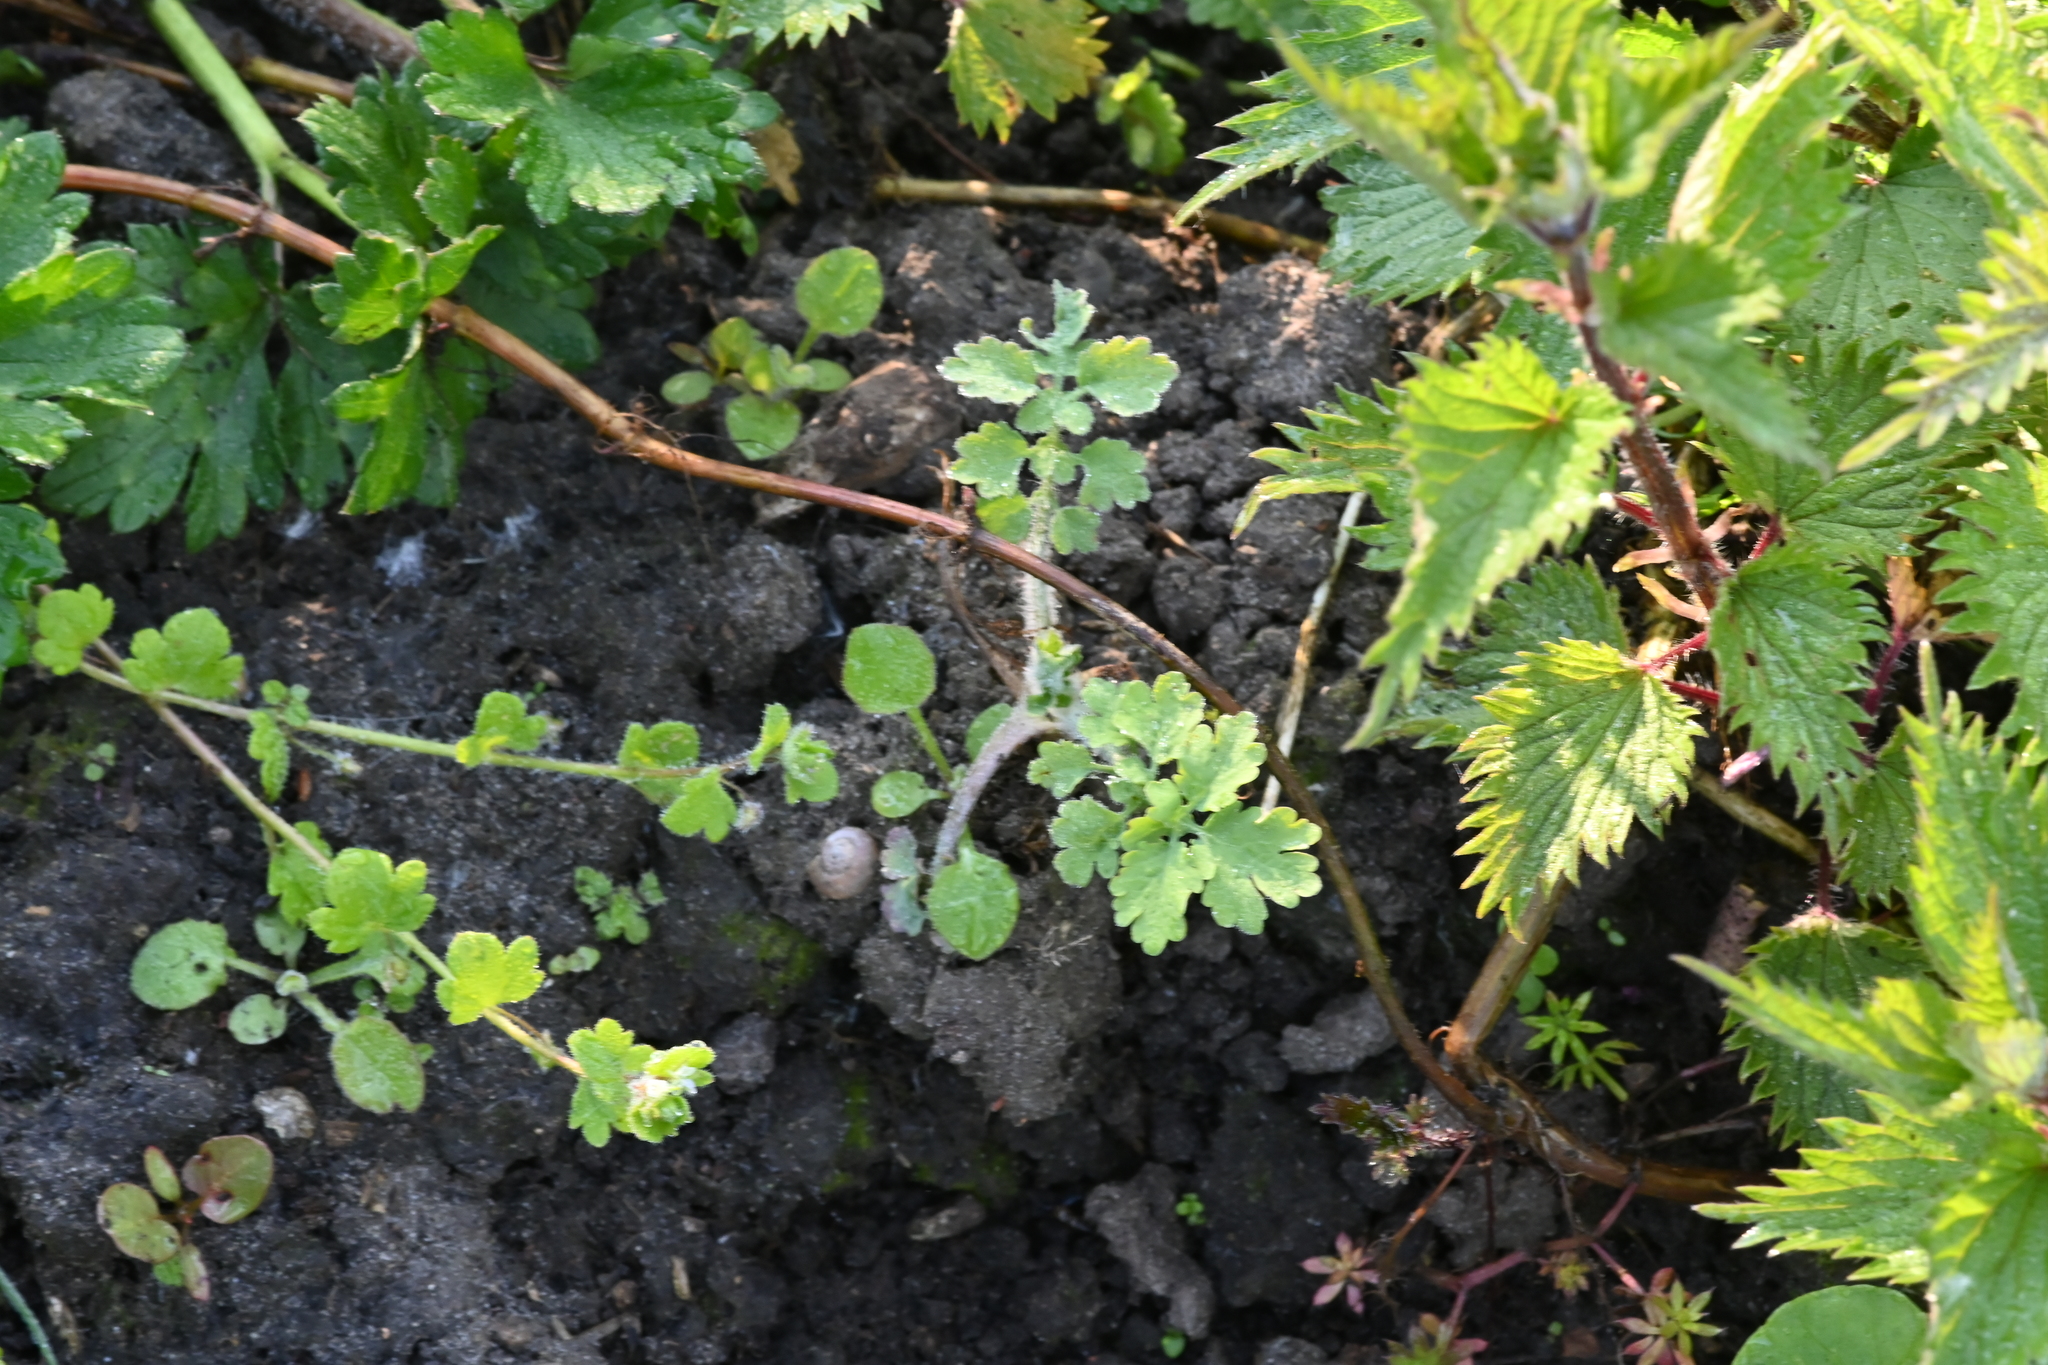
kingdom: Plantae
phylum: Tracheophyta
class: Magnoliopsida
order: Ranunculales
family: Papaveraceae
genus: Chelidonium
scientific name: Chelidonium majus
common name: Greater celandine
